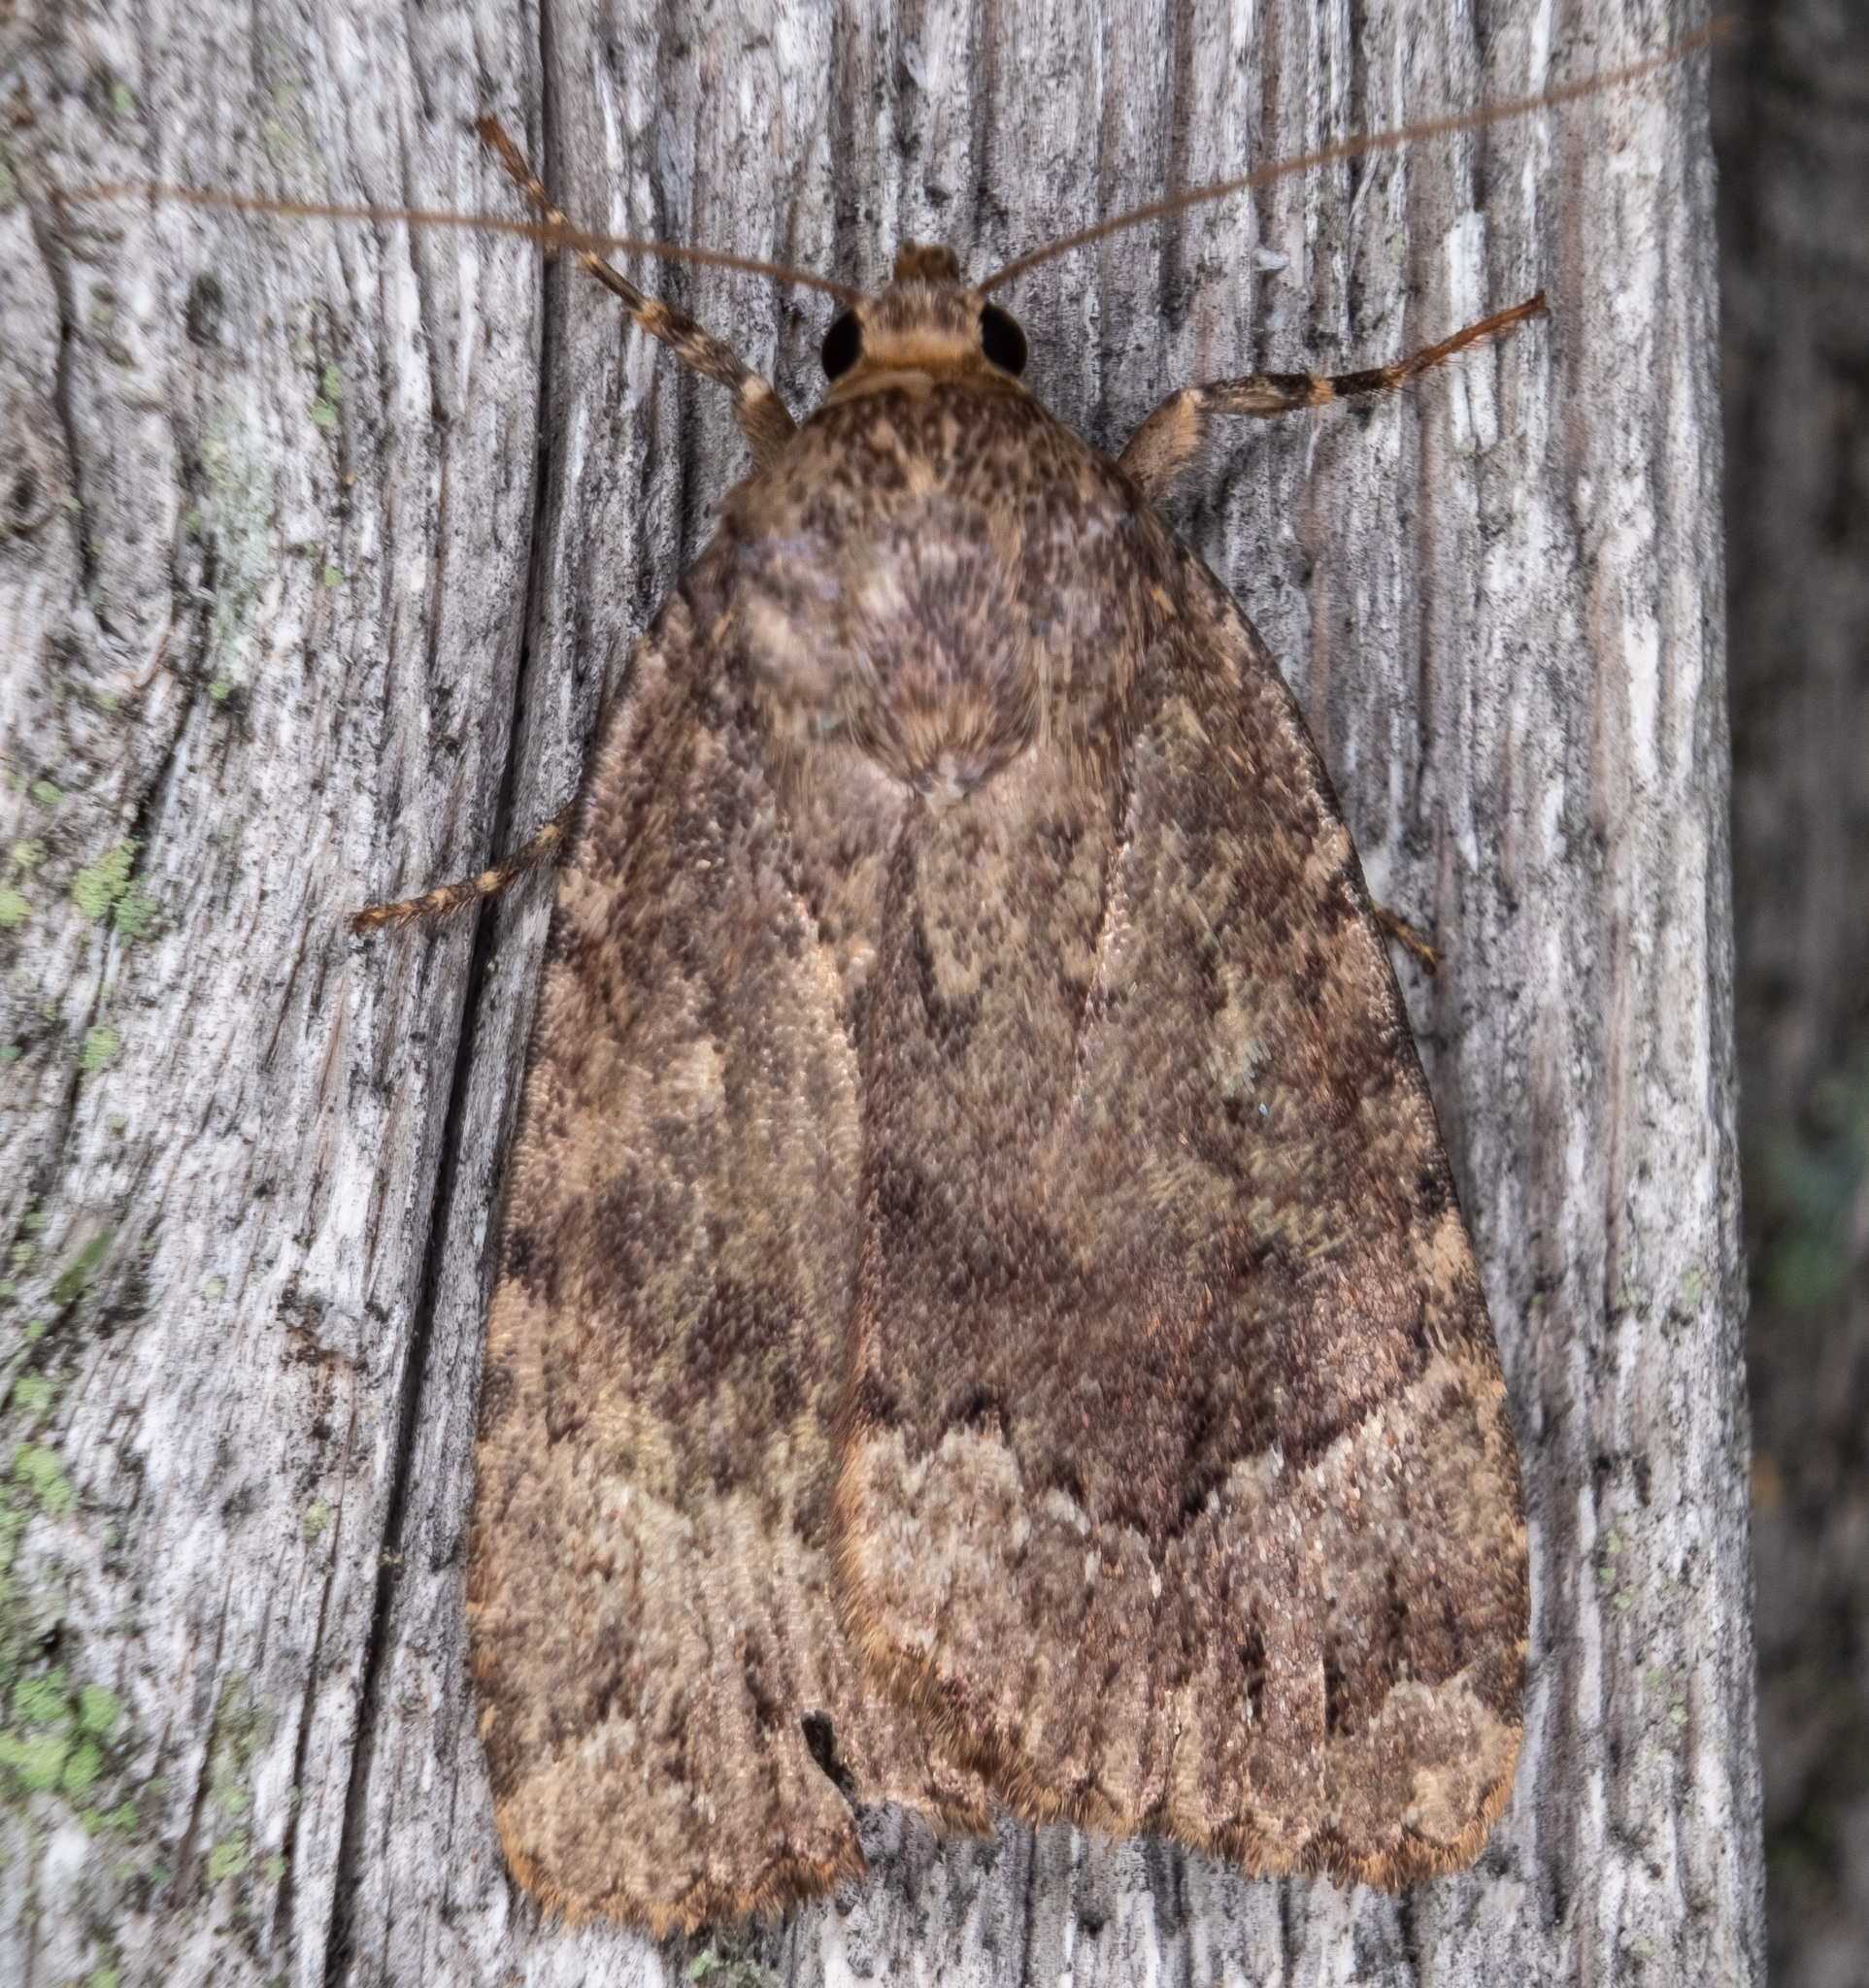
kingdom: Animalia
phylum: Arthropoda
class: Insecta
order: Lepidoptera
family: Noctuidae
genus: Amphipyra
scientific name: Amphipyra pyramidoides
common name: American copper underwing
